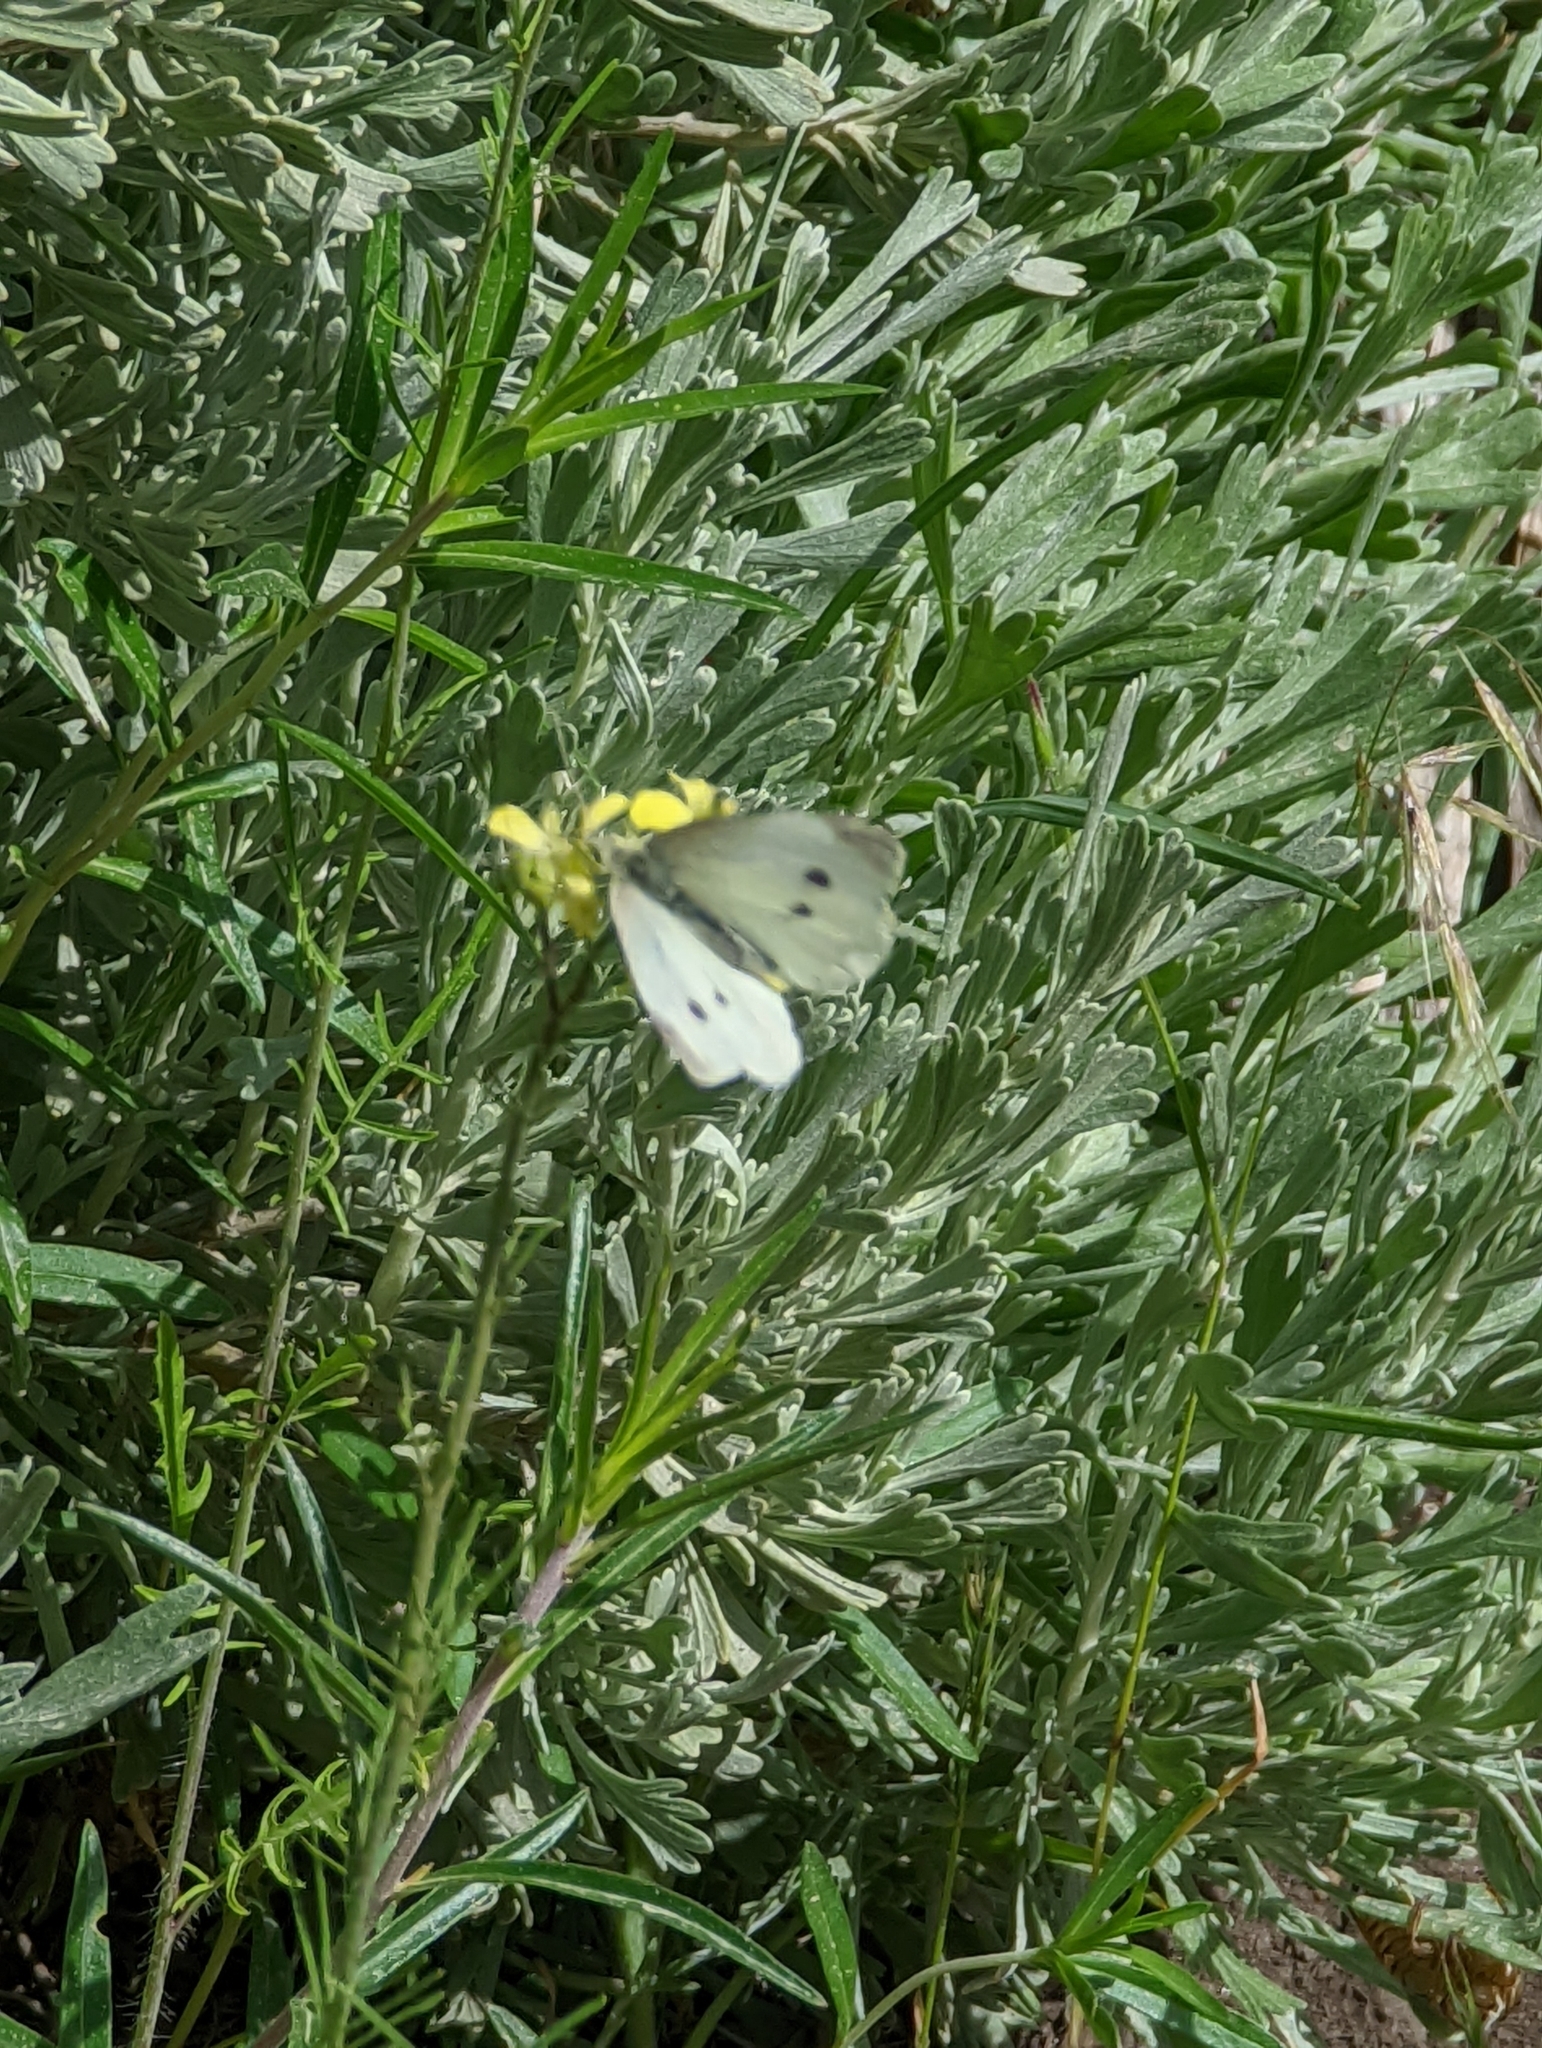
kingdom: Animalia
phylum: Arthropoda
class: Insecta
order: Lepidoptera
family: Pieridae
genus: Pieris
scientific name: Pieris rapae
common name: Small white
